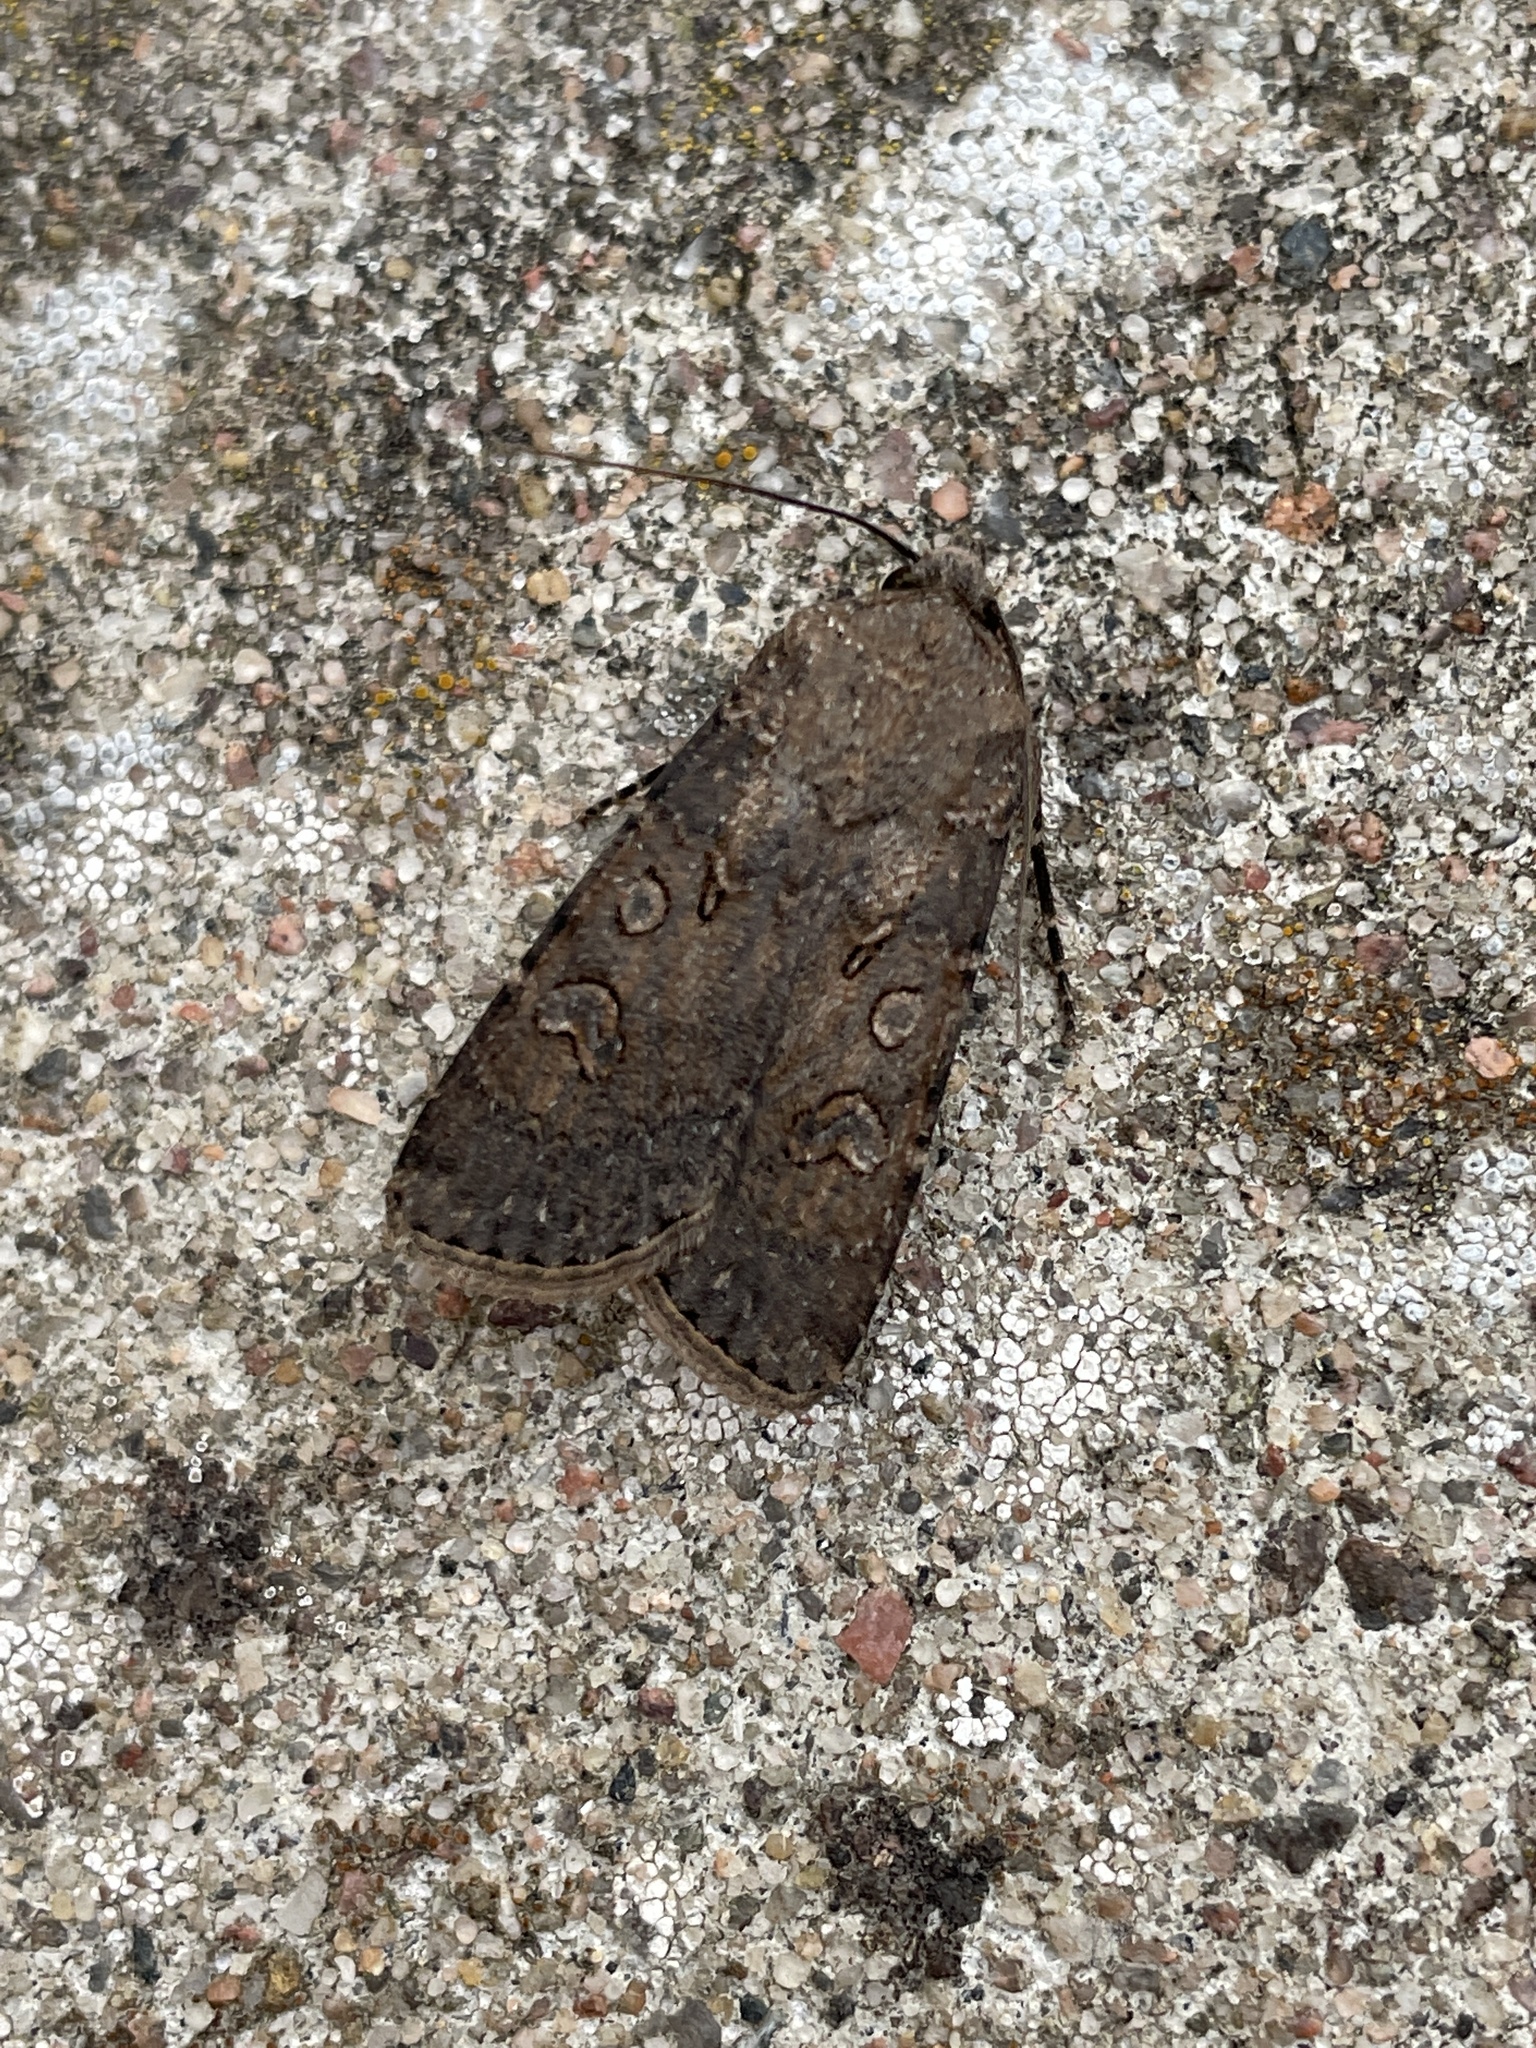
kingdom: Animalia
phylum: Arthropoda
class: Insecta
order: Lepidoptera
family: Noctuidae
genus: Agrotis
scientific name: Agrotis segetum
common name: Turnip moth
